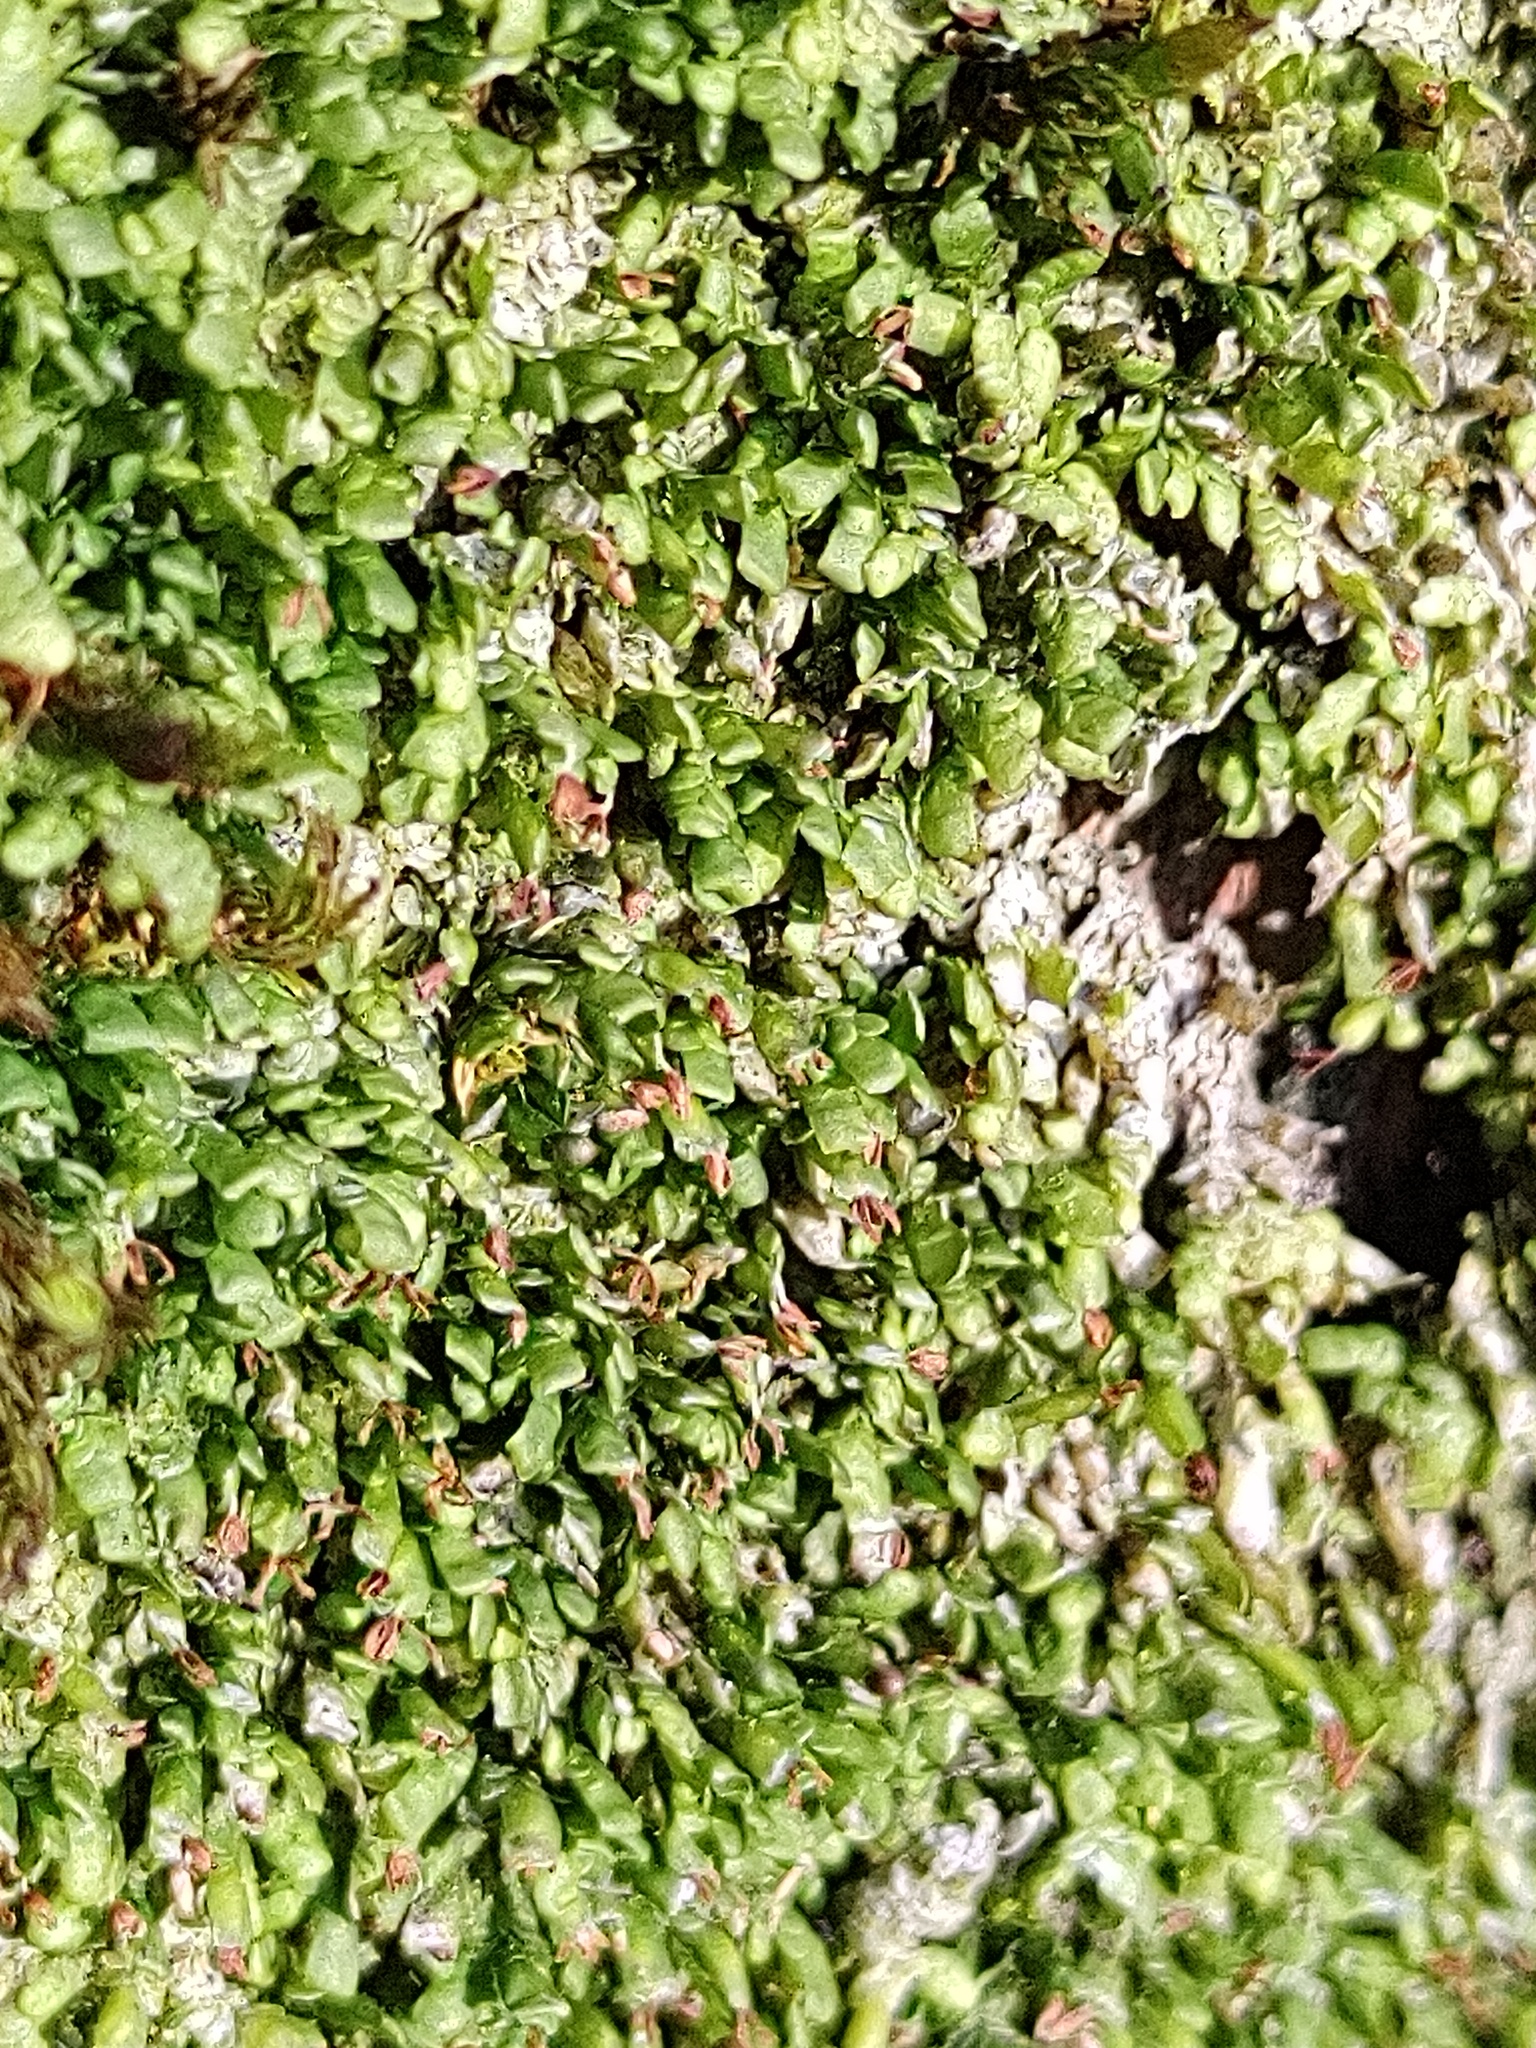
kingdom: Plantae
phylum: Marchantiophyta
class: Jungermanniopsida
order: Porellales
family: Radulaceae
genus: Radula
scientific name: Radula complanata
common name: Flat-leaved scalewort
